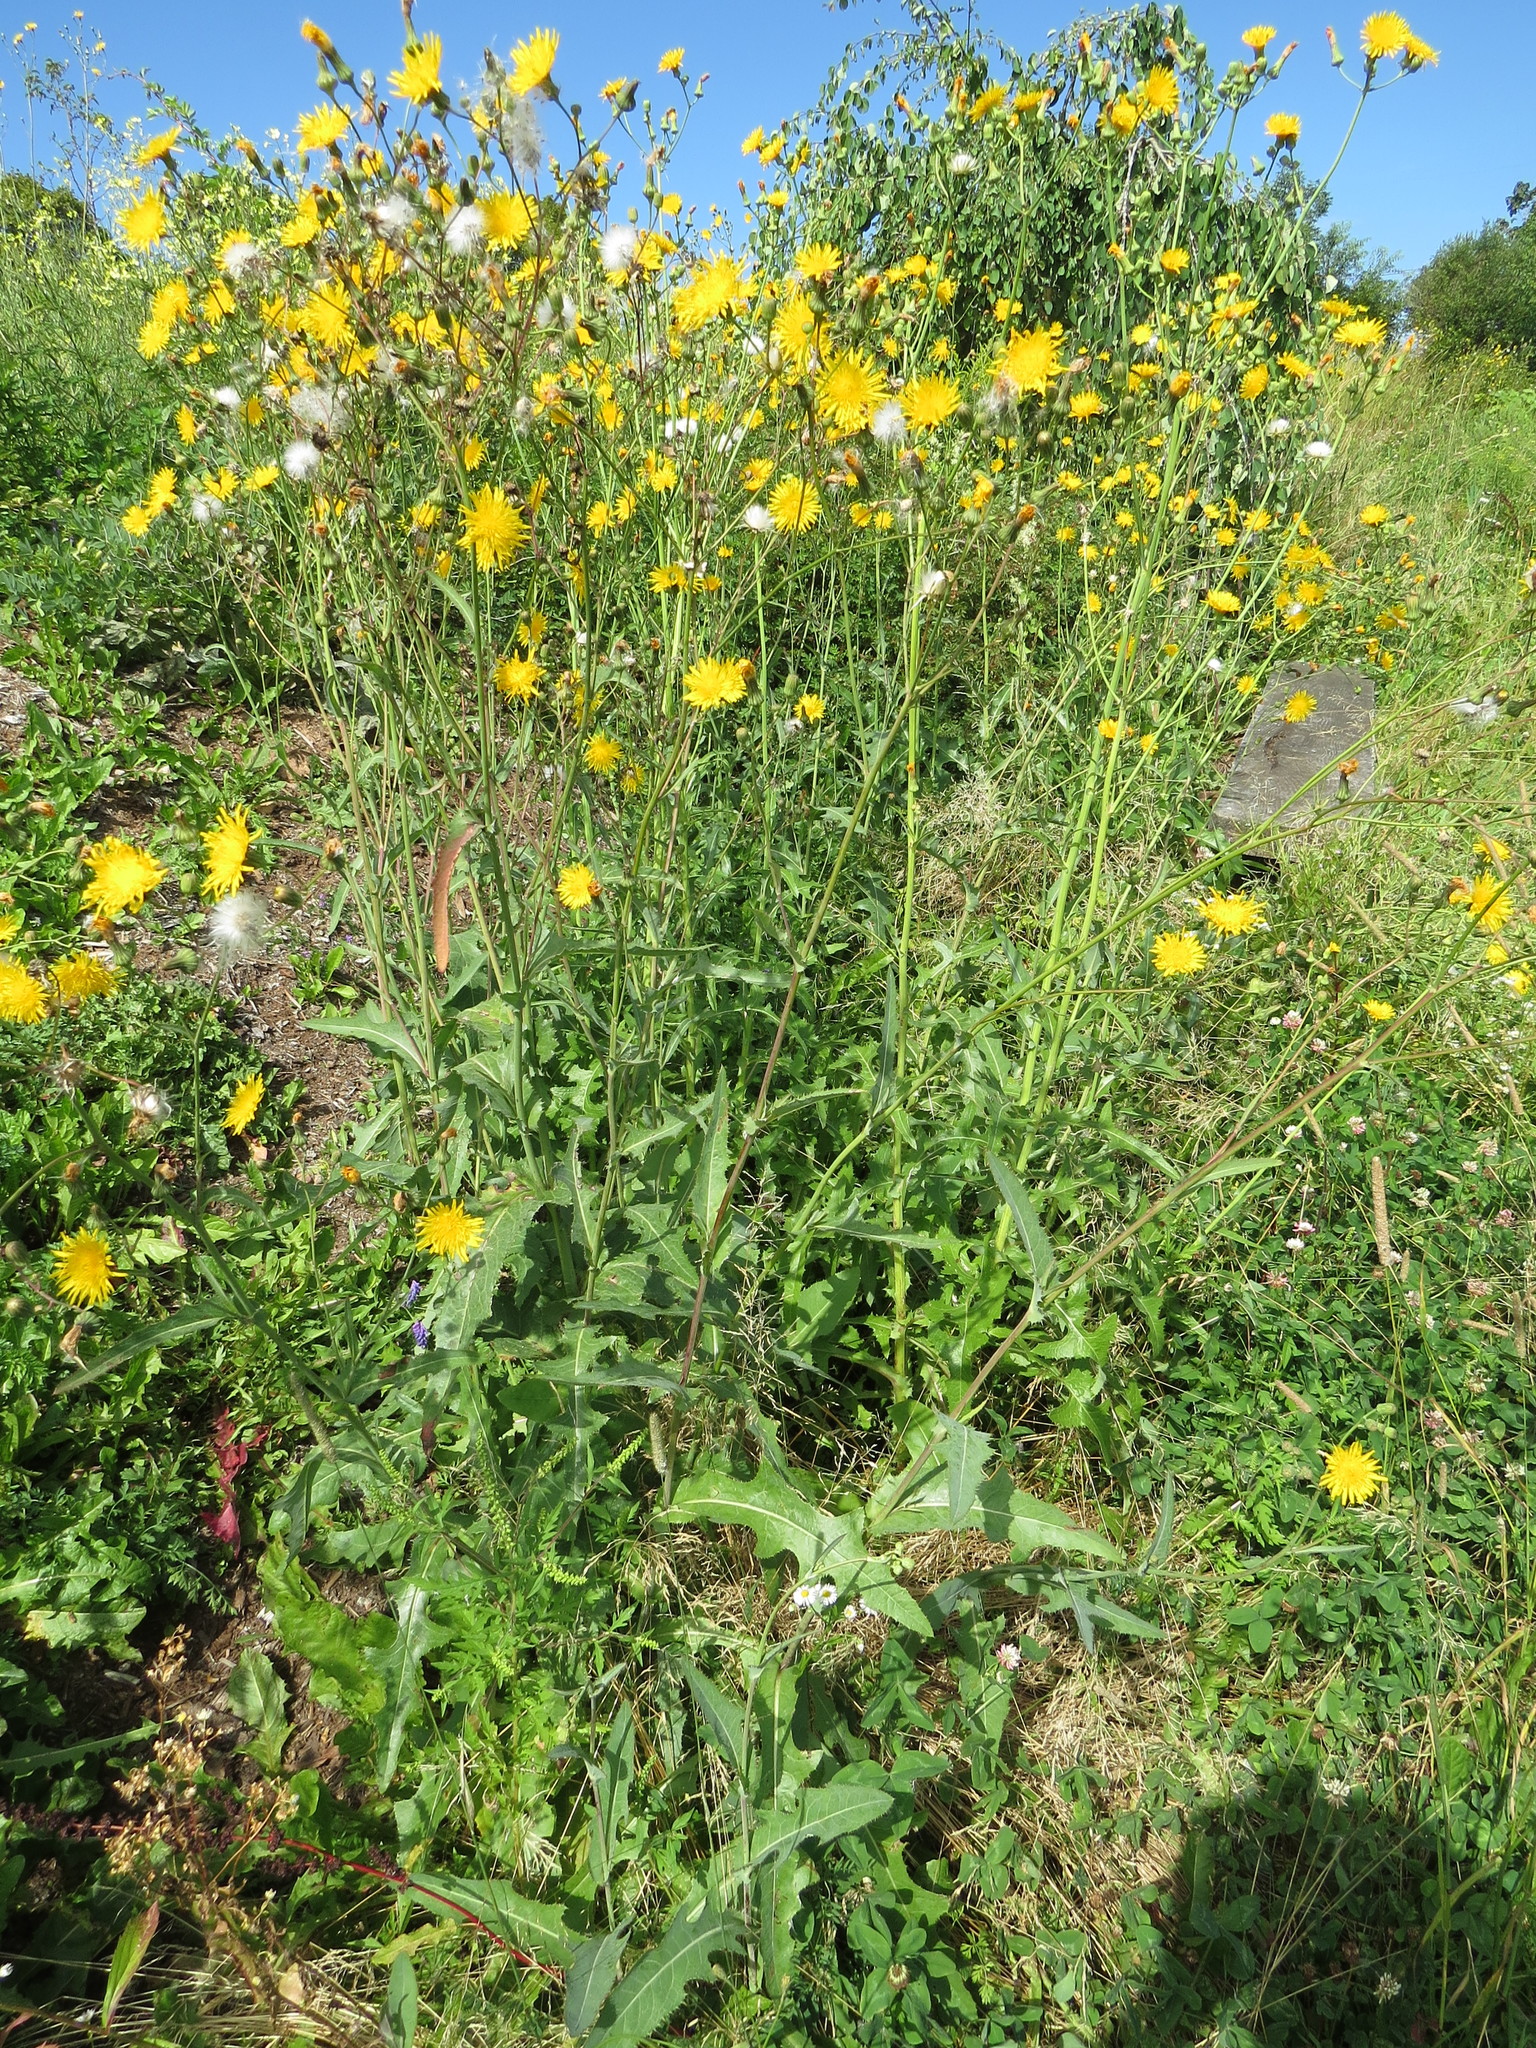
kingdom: Plantae
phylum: Tracheophyta
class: Magnoliopsida
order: Asterales
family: Asteraceae
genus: Sonchus
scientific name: Sonchus arvensis
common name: Perennial sow-thistle
